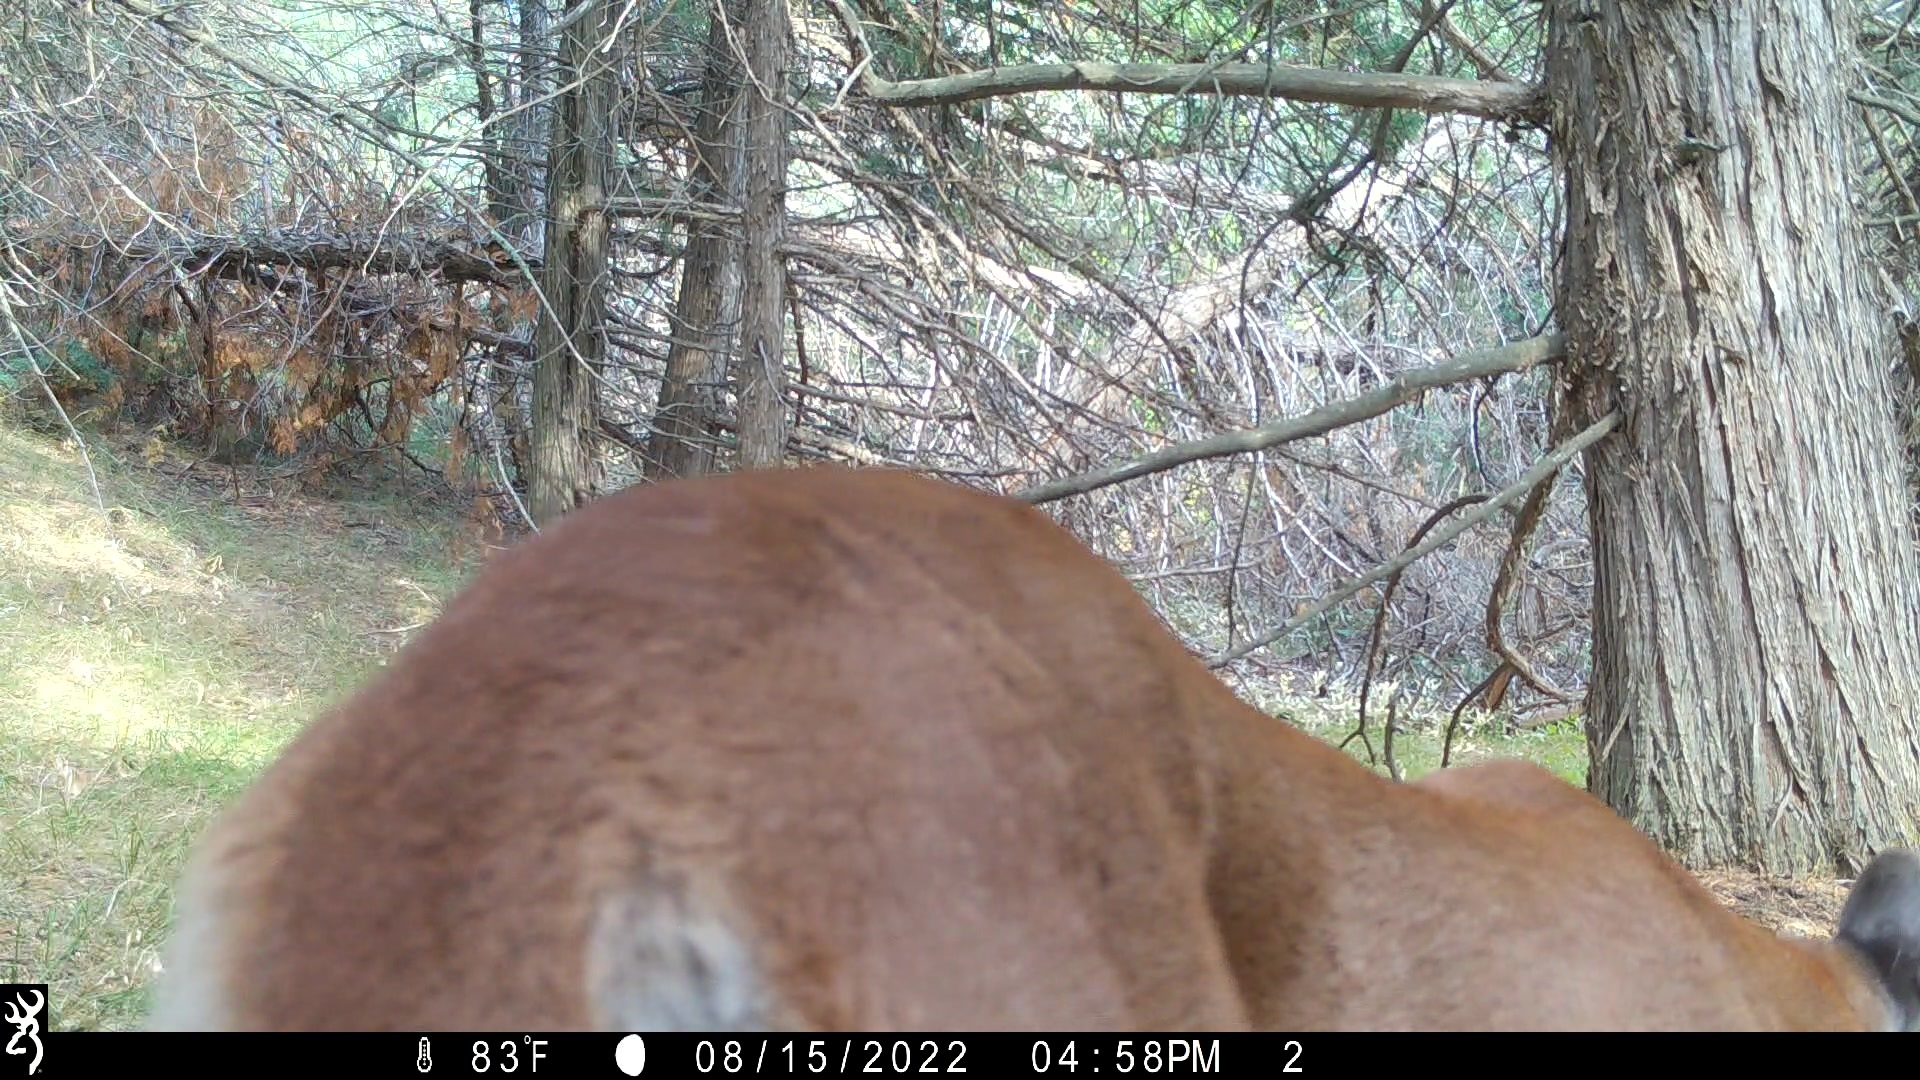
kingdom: Animalia
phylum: Chordata
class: Mammalia
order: Carnivora
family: Felidae
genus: Puma
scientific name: Puma concolor
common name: Puma
